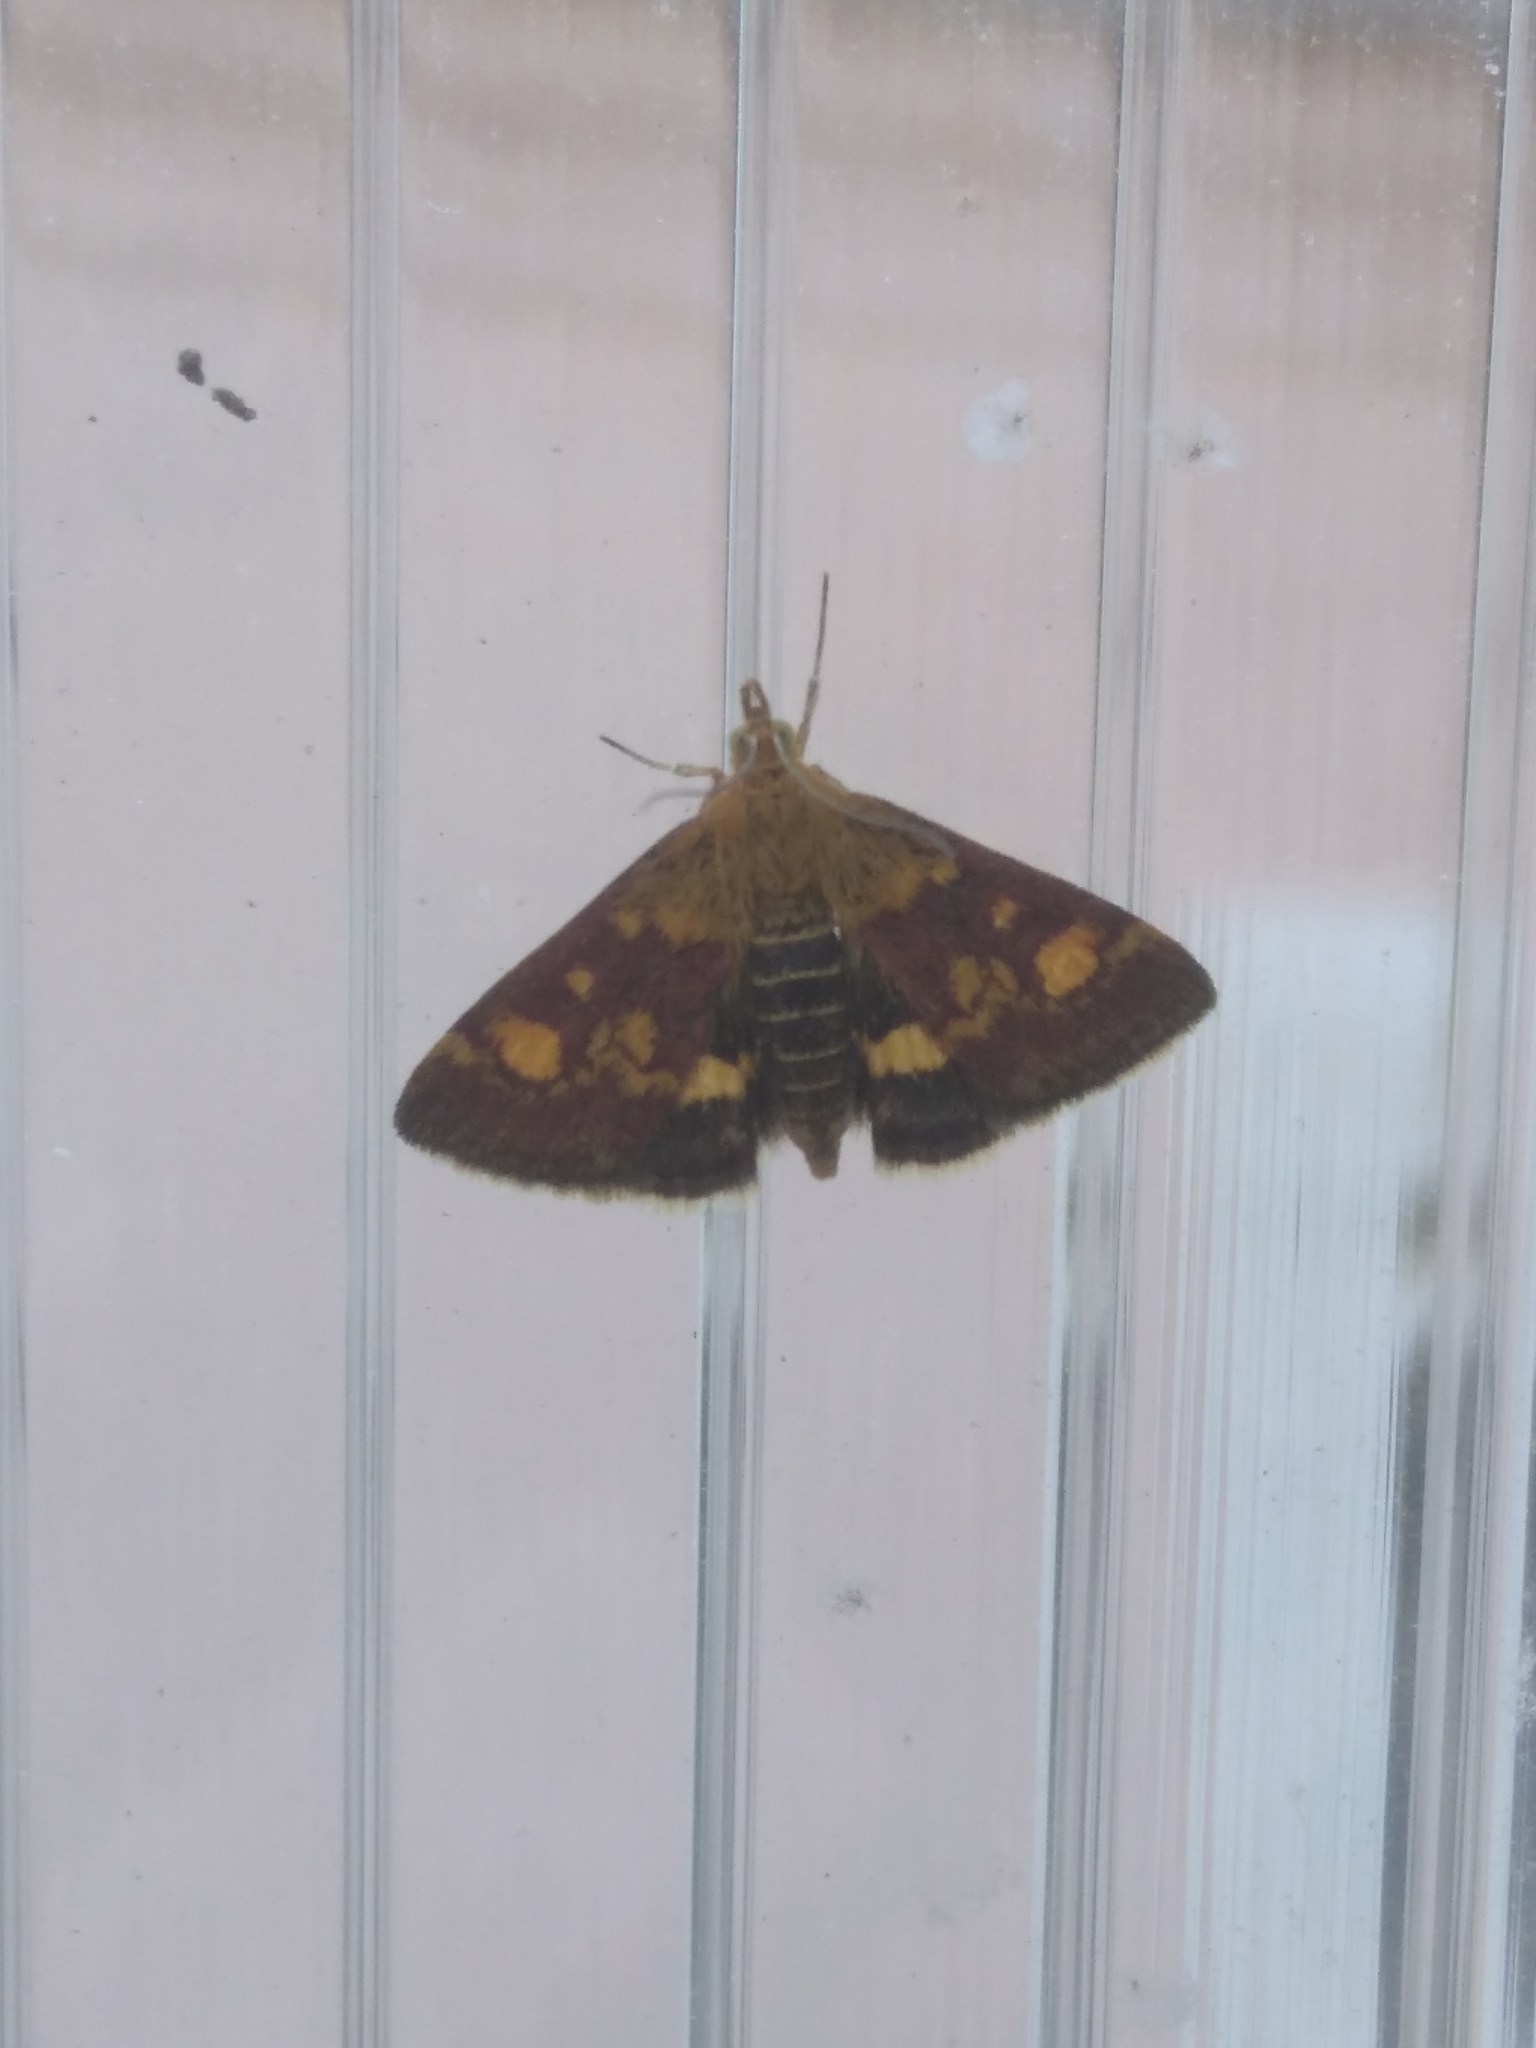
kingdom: Animalia
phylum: Arthropoda
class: Insecta
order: Lepidoptera
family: Crambidae
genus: Pyrausta
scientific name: Pyrausta aurata
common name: Small purple & gold
